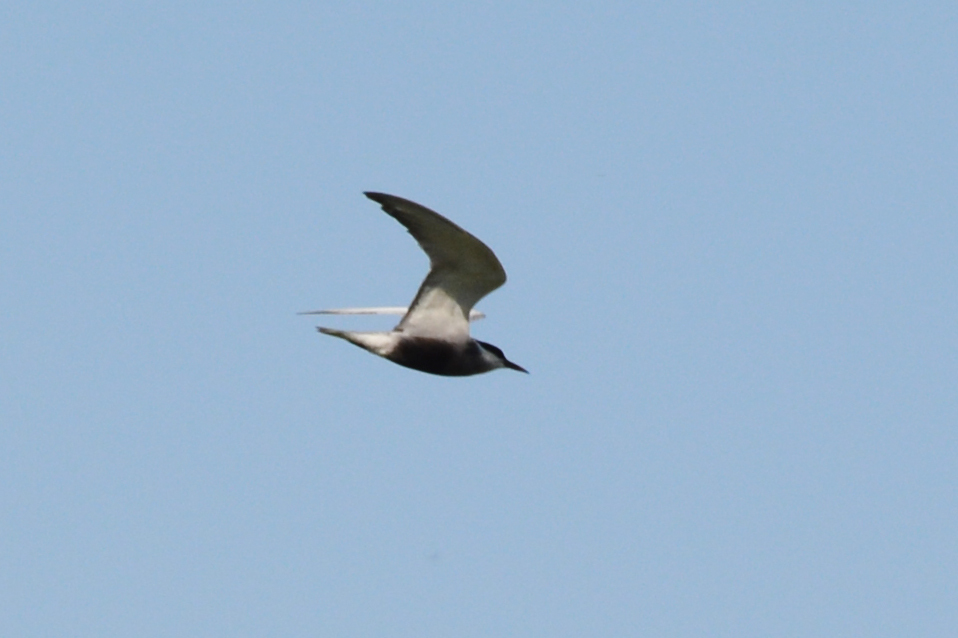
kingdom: Animalia
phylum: Chordata
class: Aves
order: Charadriiformes
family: Laridae
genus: Chlidonias
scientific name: Chlidonias hybrida
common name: Whiskered tern
